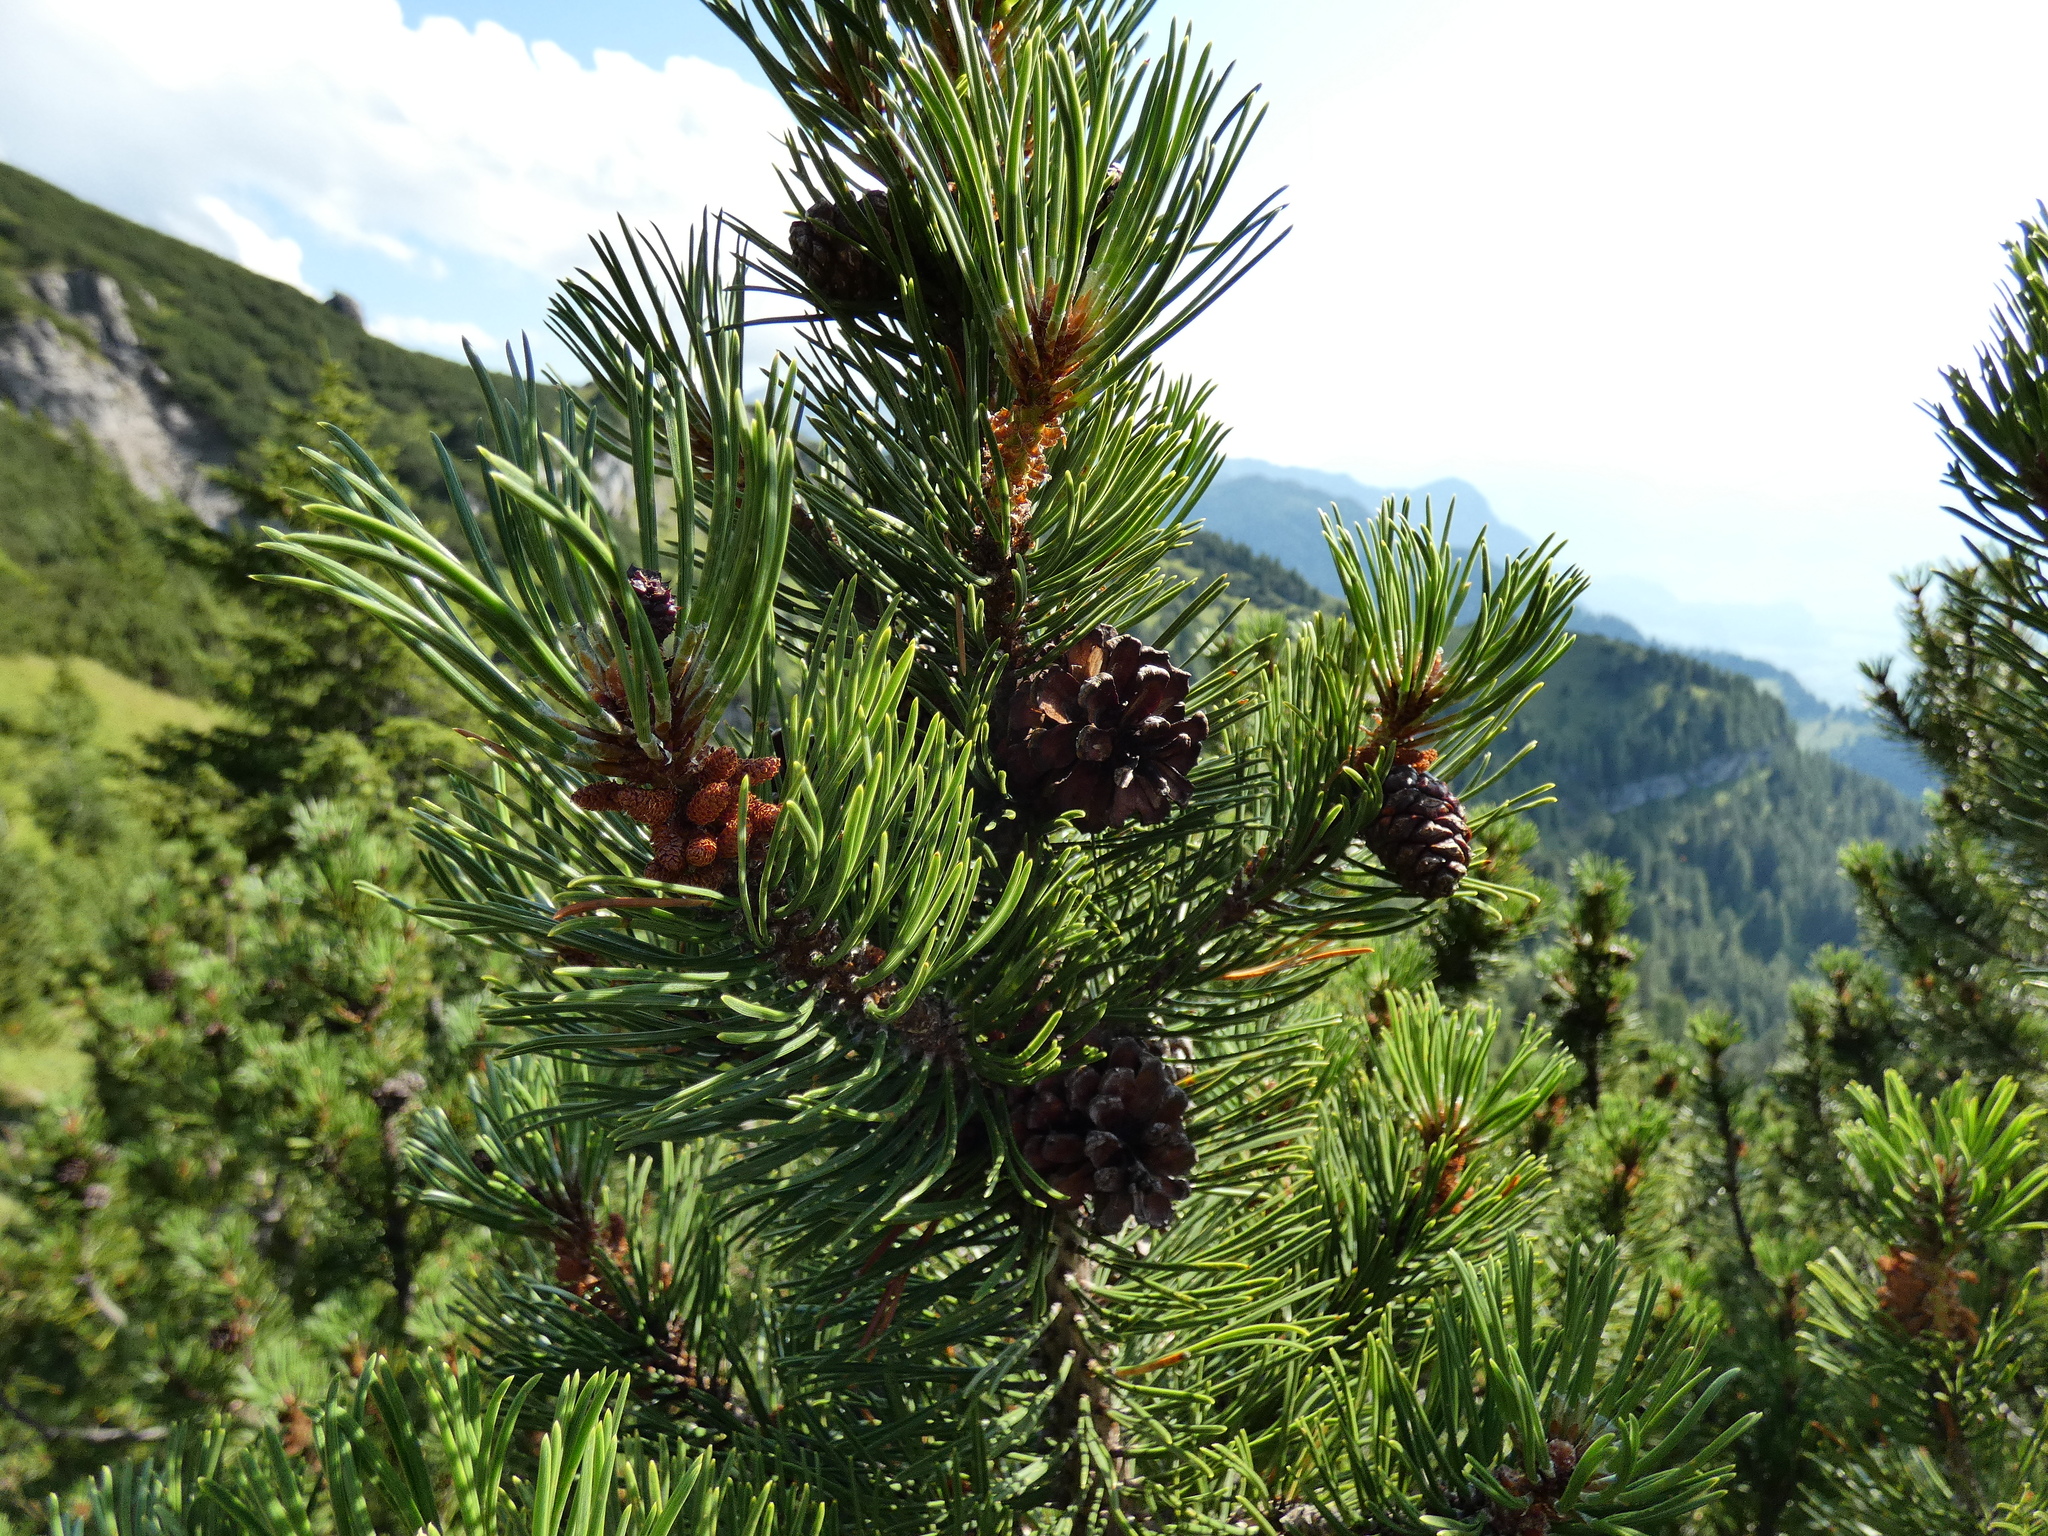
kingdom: Plantae
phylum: Tracheophyta
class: Pinopsida
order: Pinales
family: Pinaceae
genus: Pinus
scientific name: Pinus mugo
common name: Mugo pine
